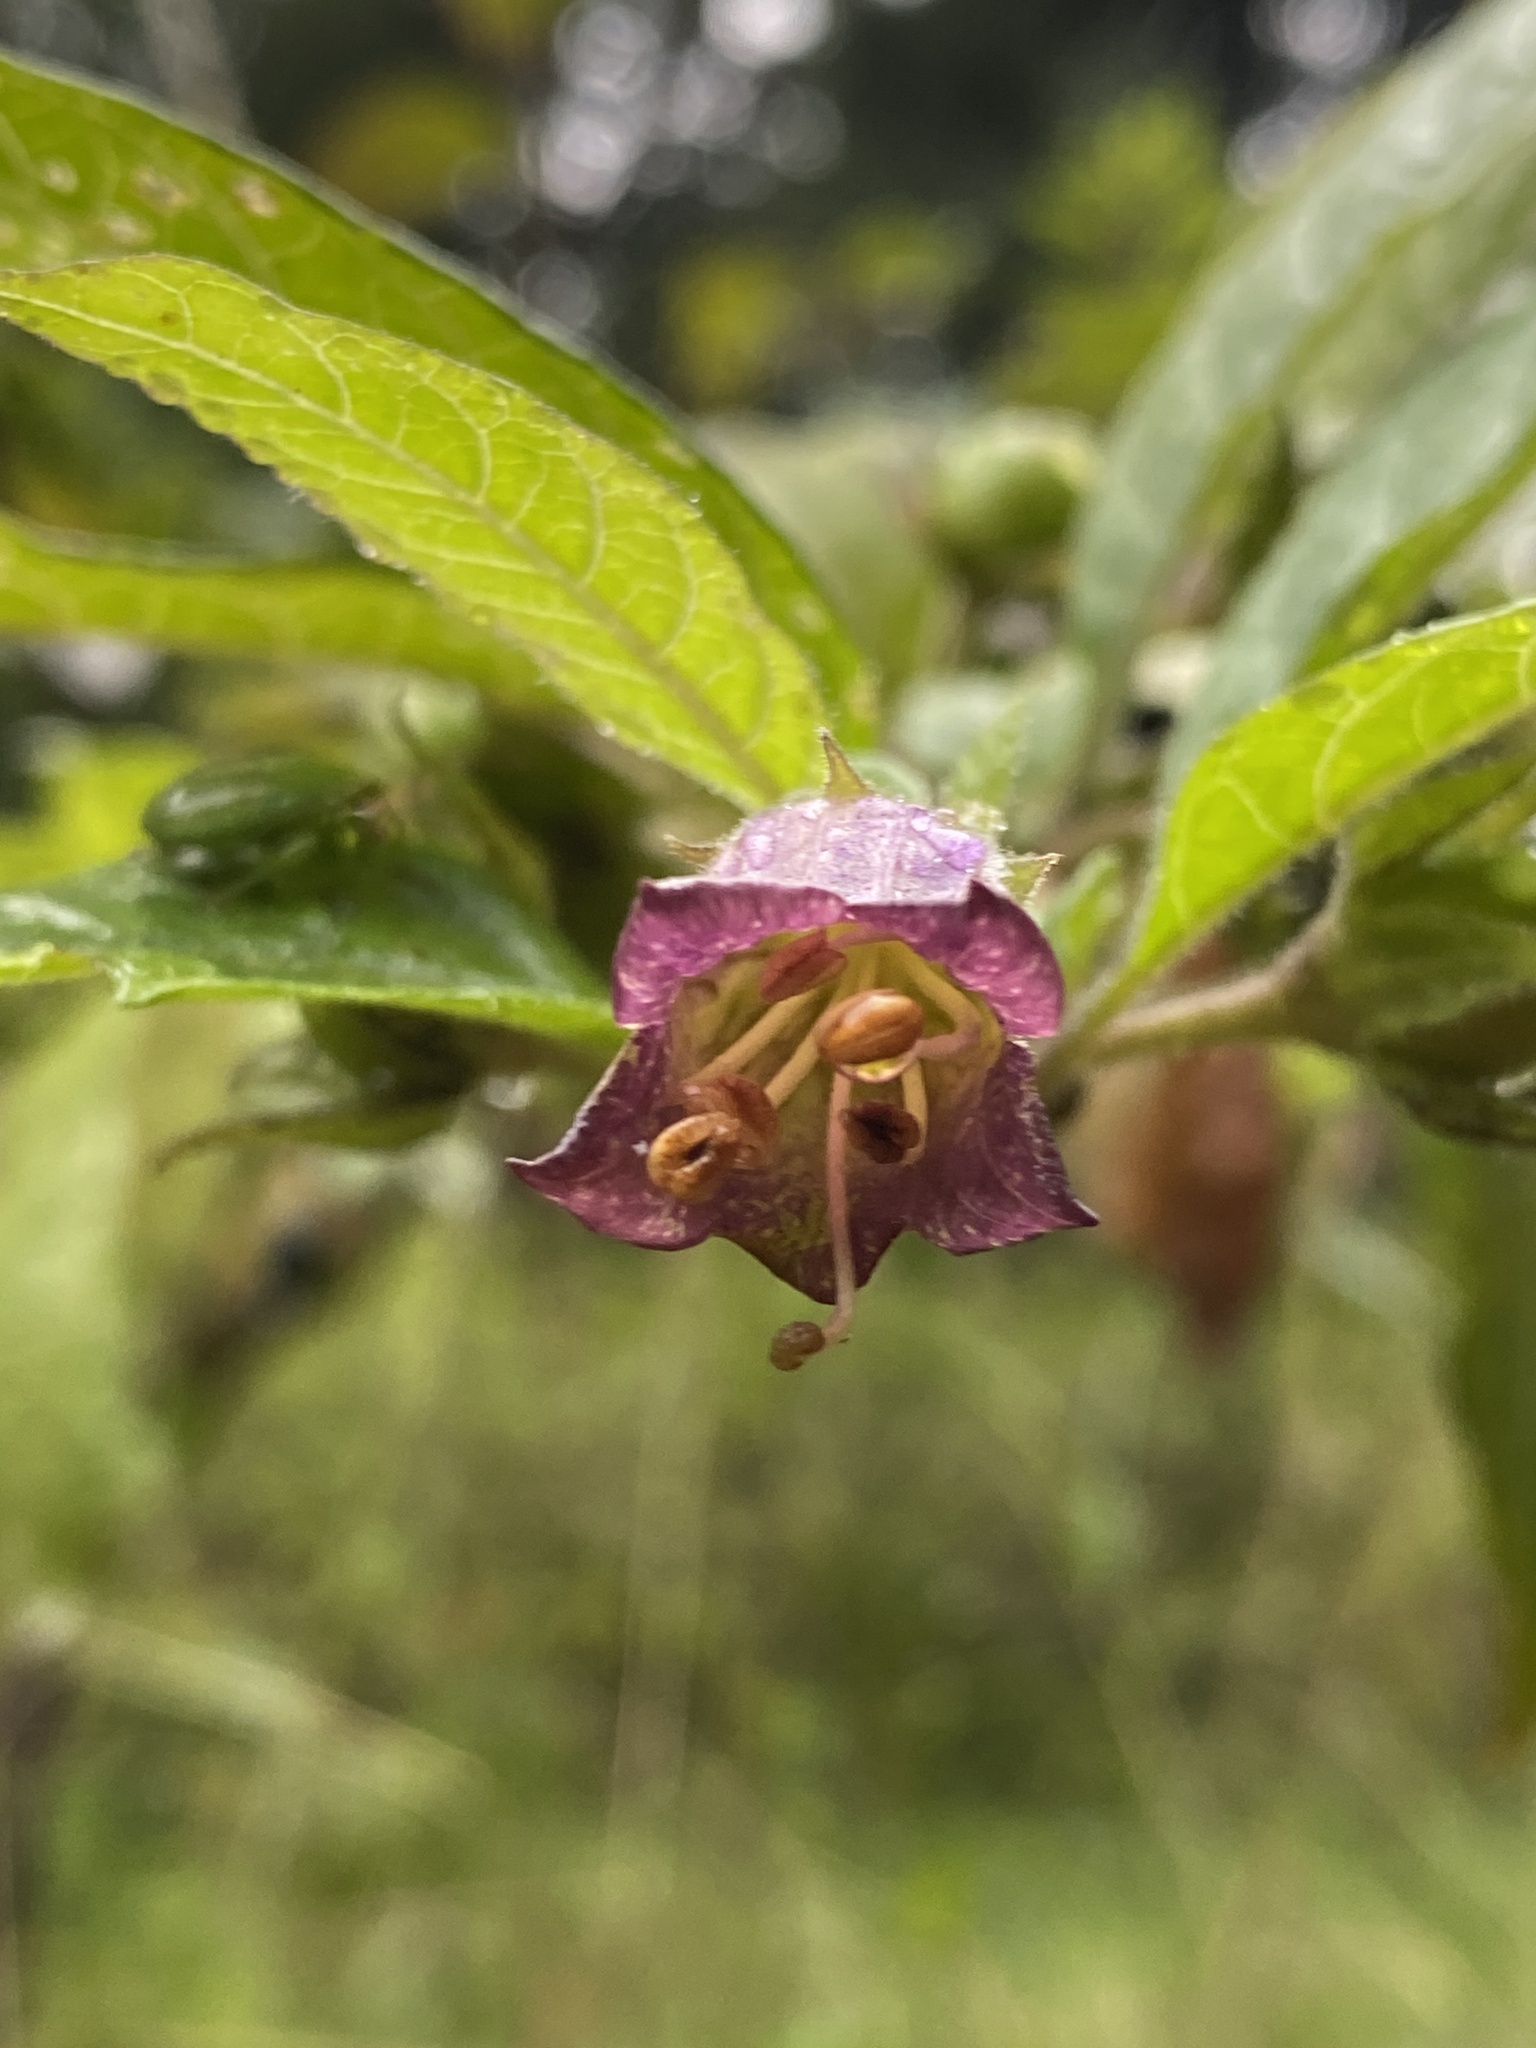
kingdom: Plantae
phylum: Tracheophyta
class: Magnoliopsida
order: Solanales
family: Solanaceae
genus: Atropa
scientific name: Atropa belladonna
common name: Deadly nightshade
